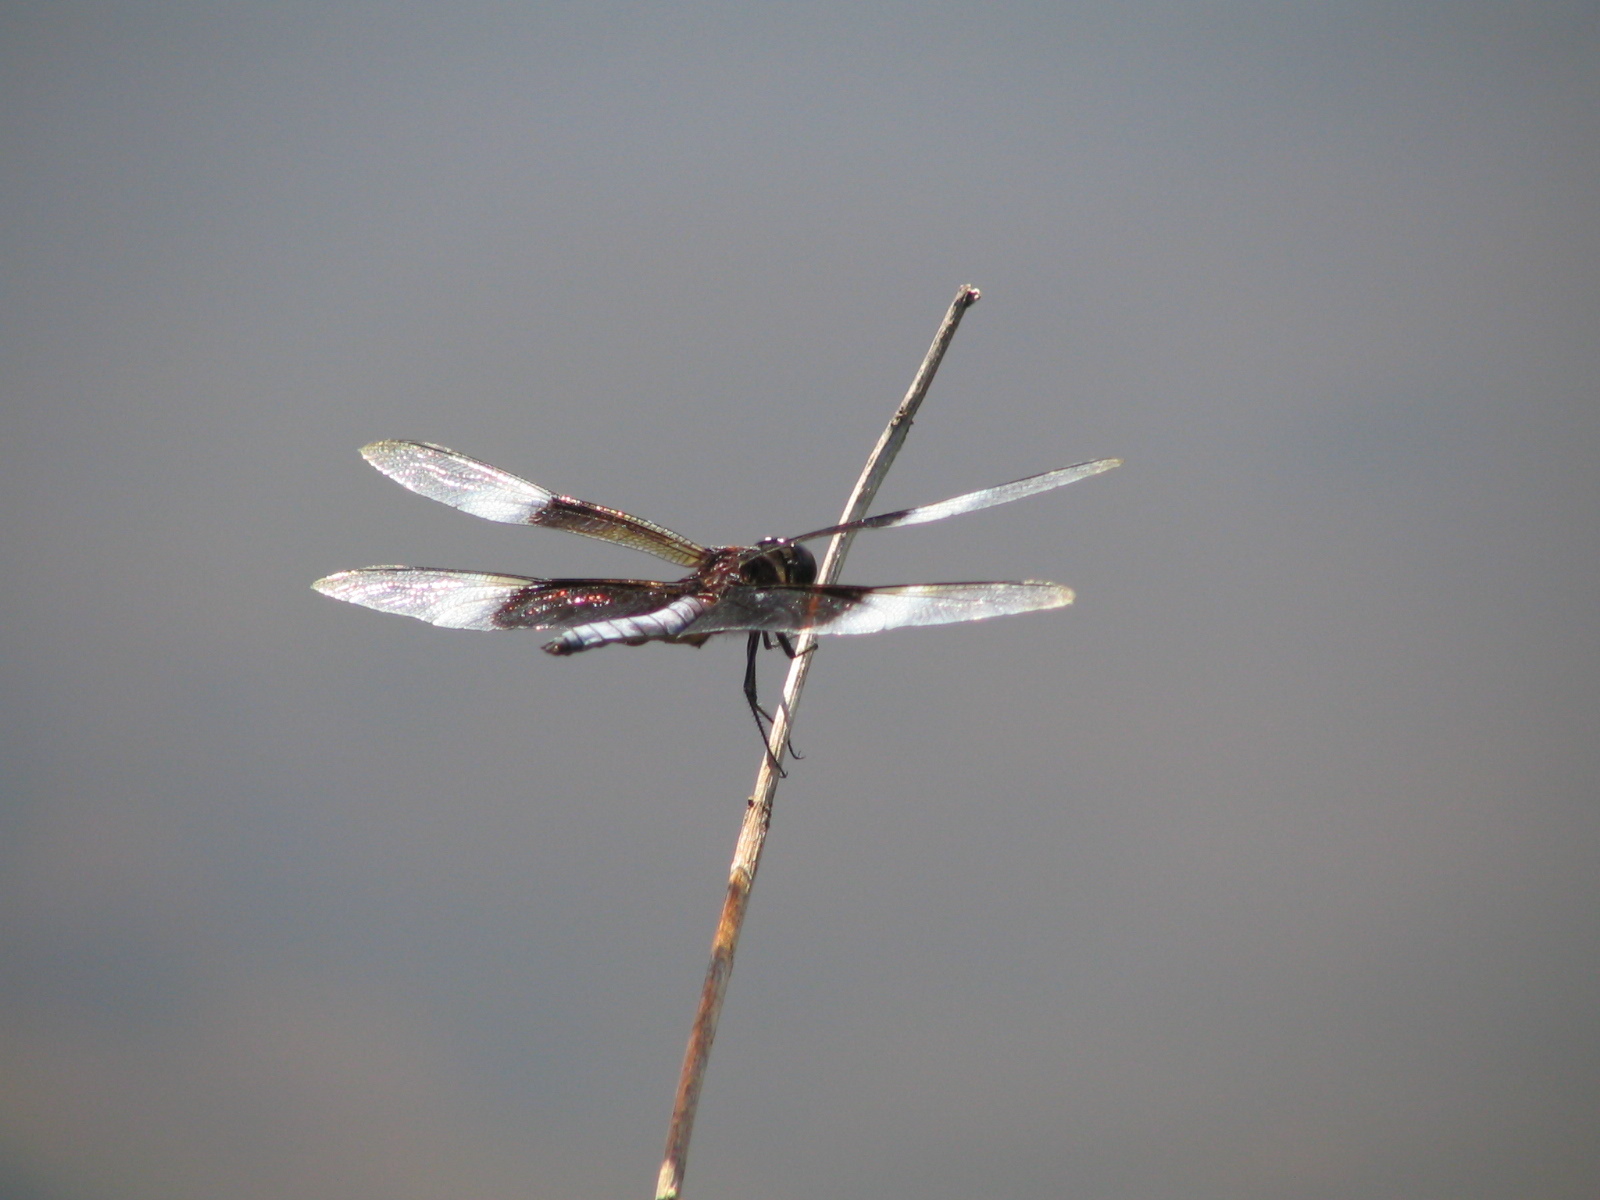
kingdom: Animalia
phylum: Arthropoda
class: Insecta
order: Odonata
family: Libellulidae
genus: Libellula
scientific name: Libellula luctuosa
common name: Widow skimmer
